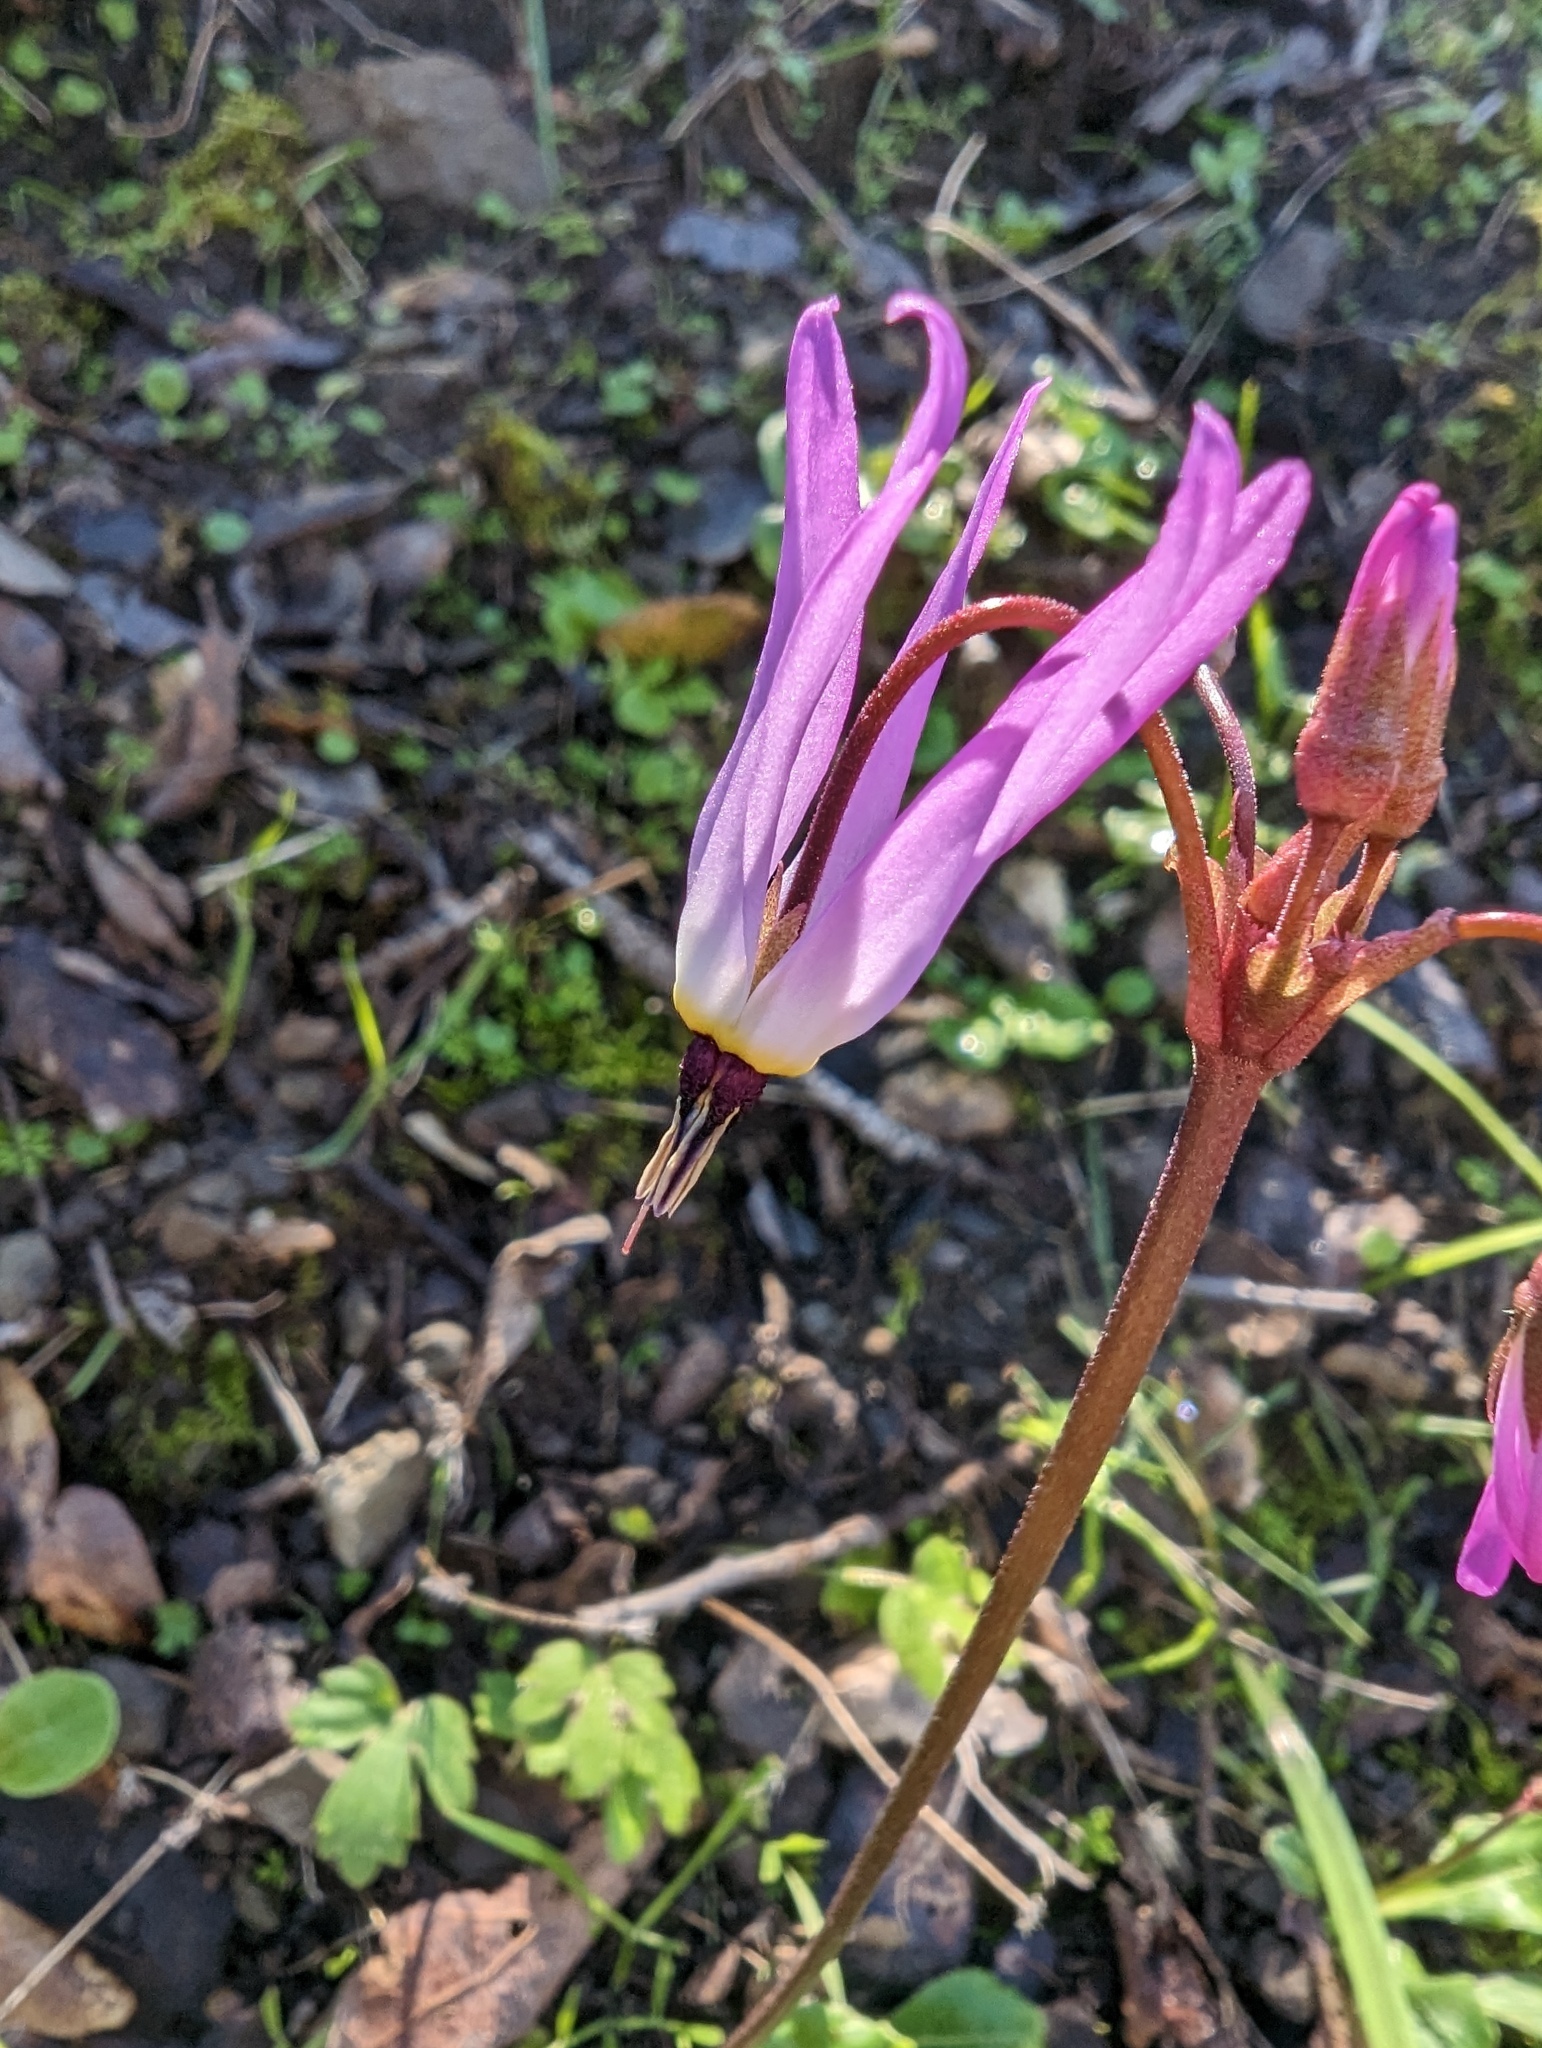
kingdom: Plantae
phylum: Tracheophyta
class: Magnoliopsida
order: Ericales
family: Primulaceae
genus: Dodecatheon
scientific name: Dodecatheon hendersonii
